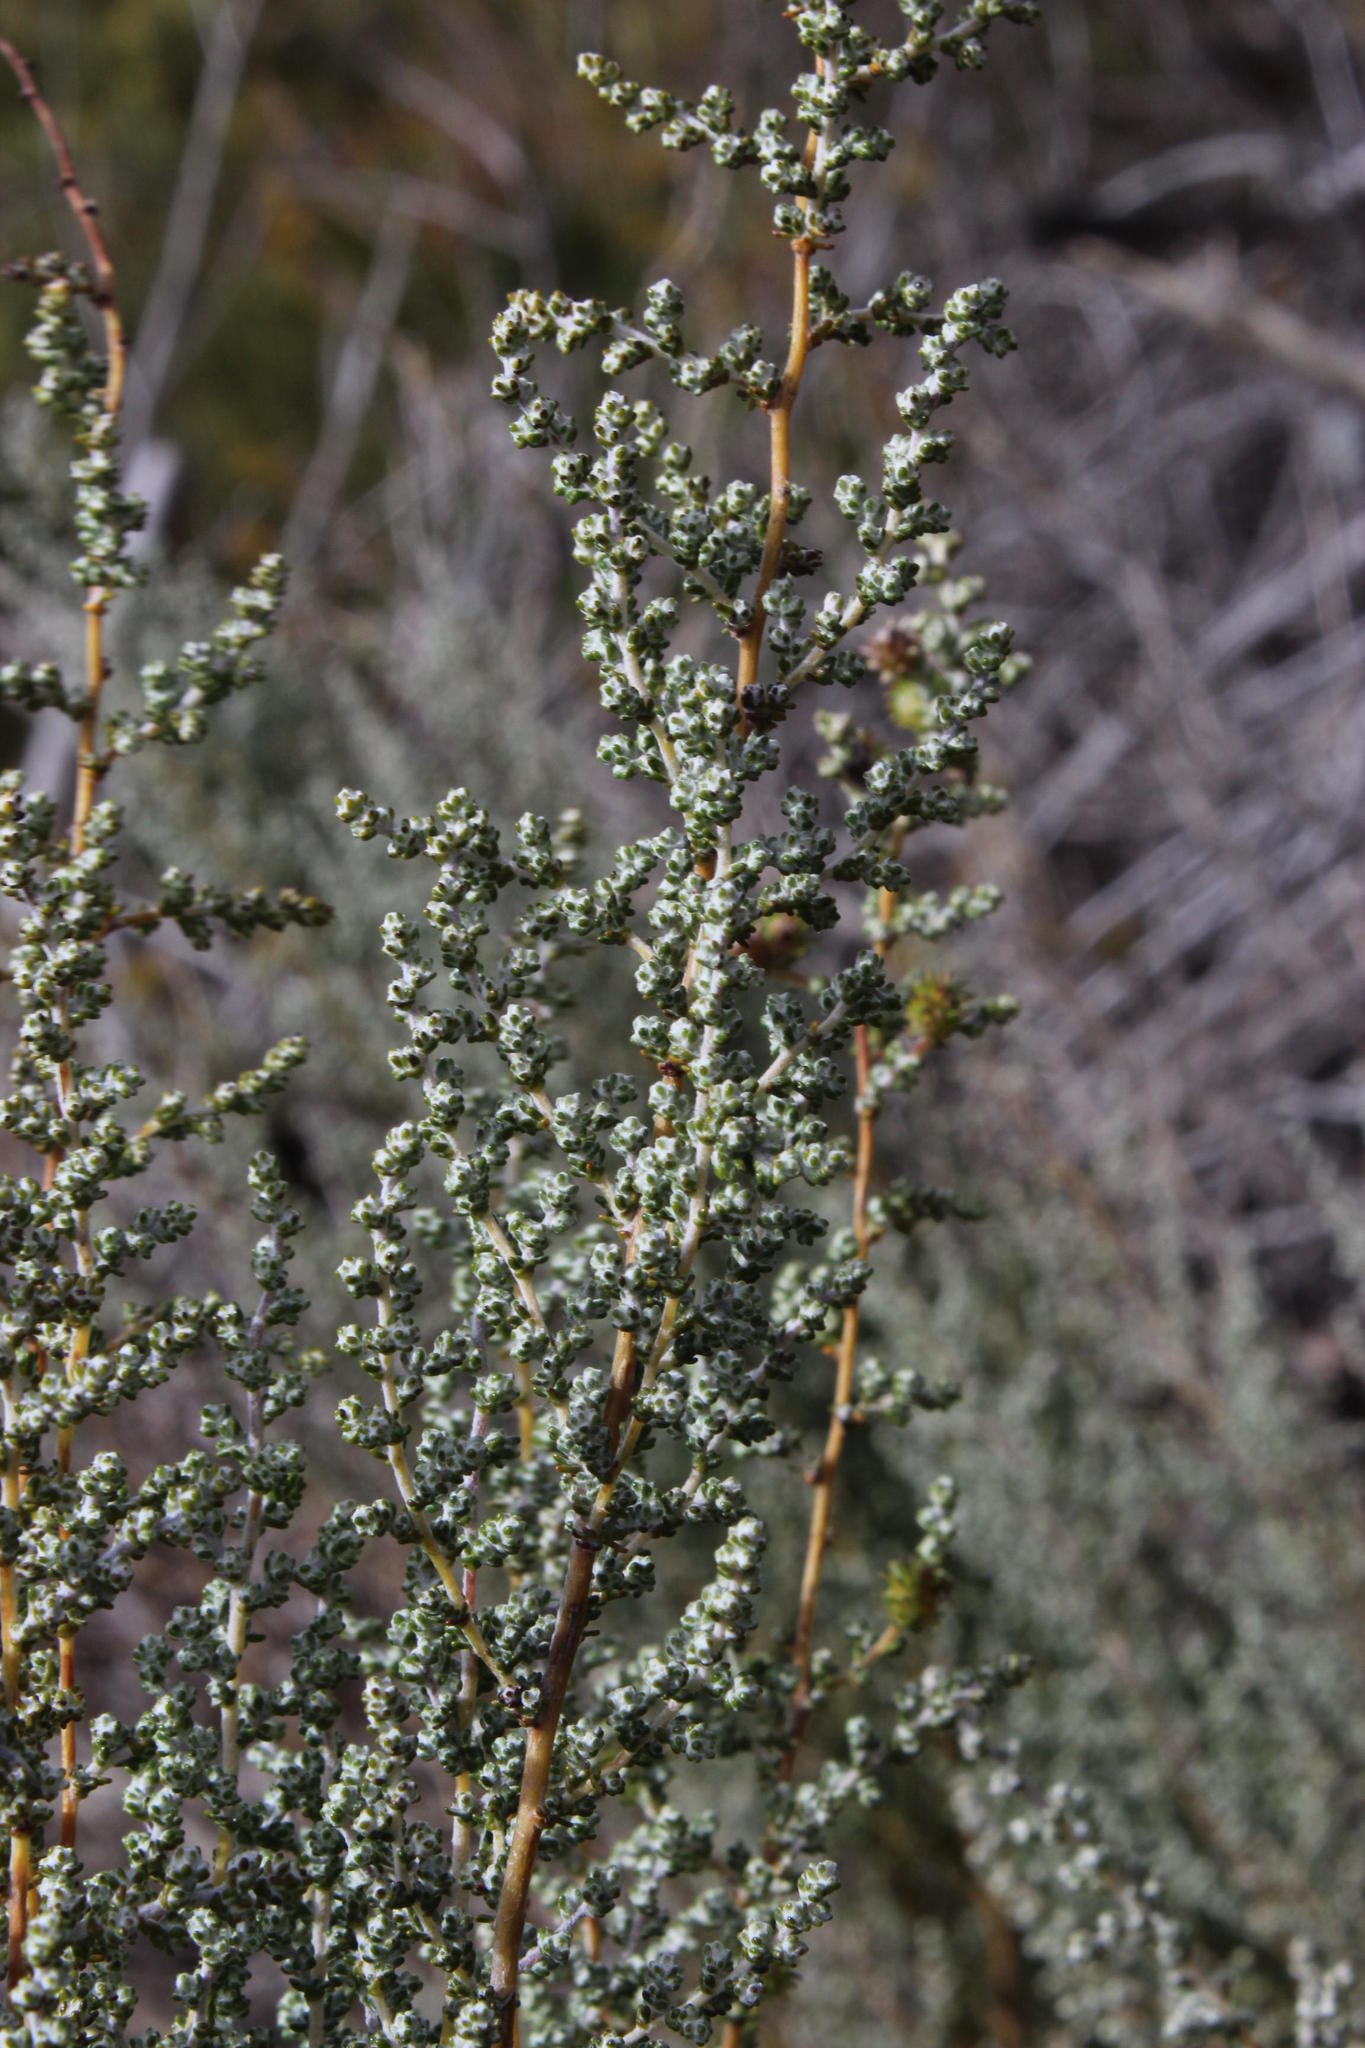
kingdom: Plantae
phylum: Tracheophyta
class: Magnoliopsida
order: Asterales
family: Asteraceae
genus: Seriphium
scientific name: Seriphium plumosum
